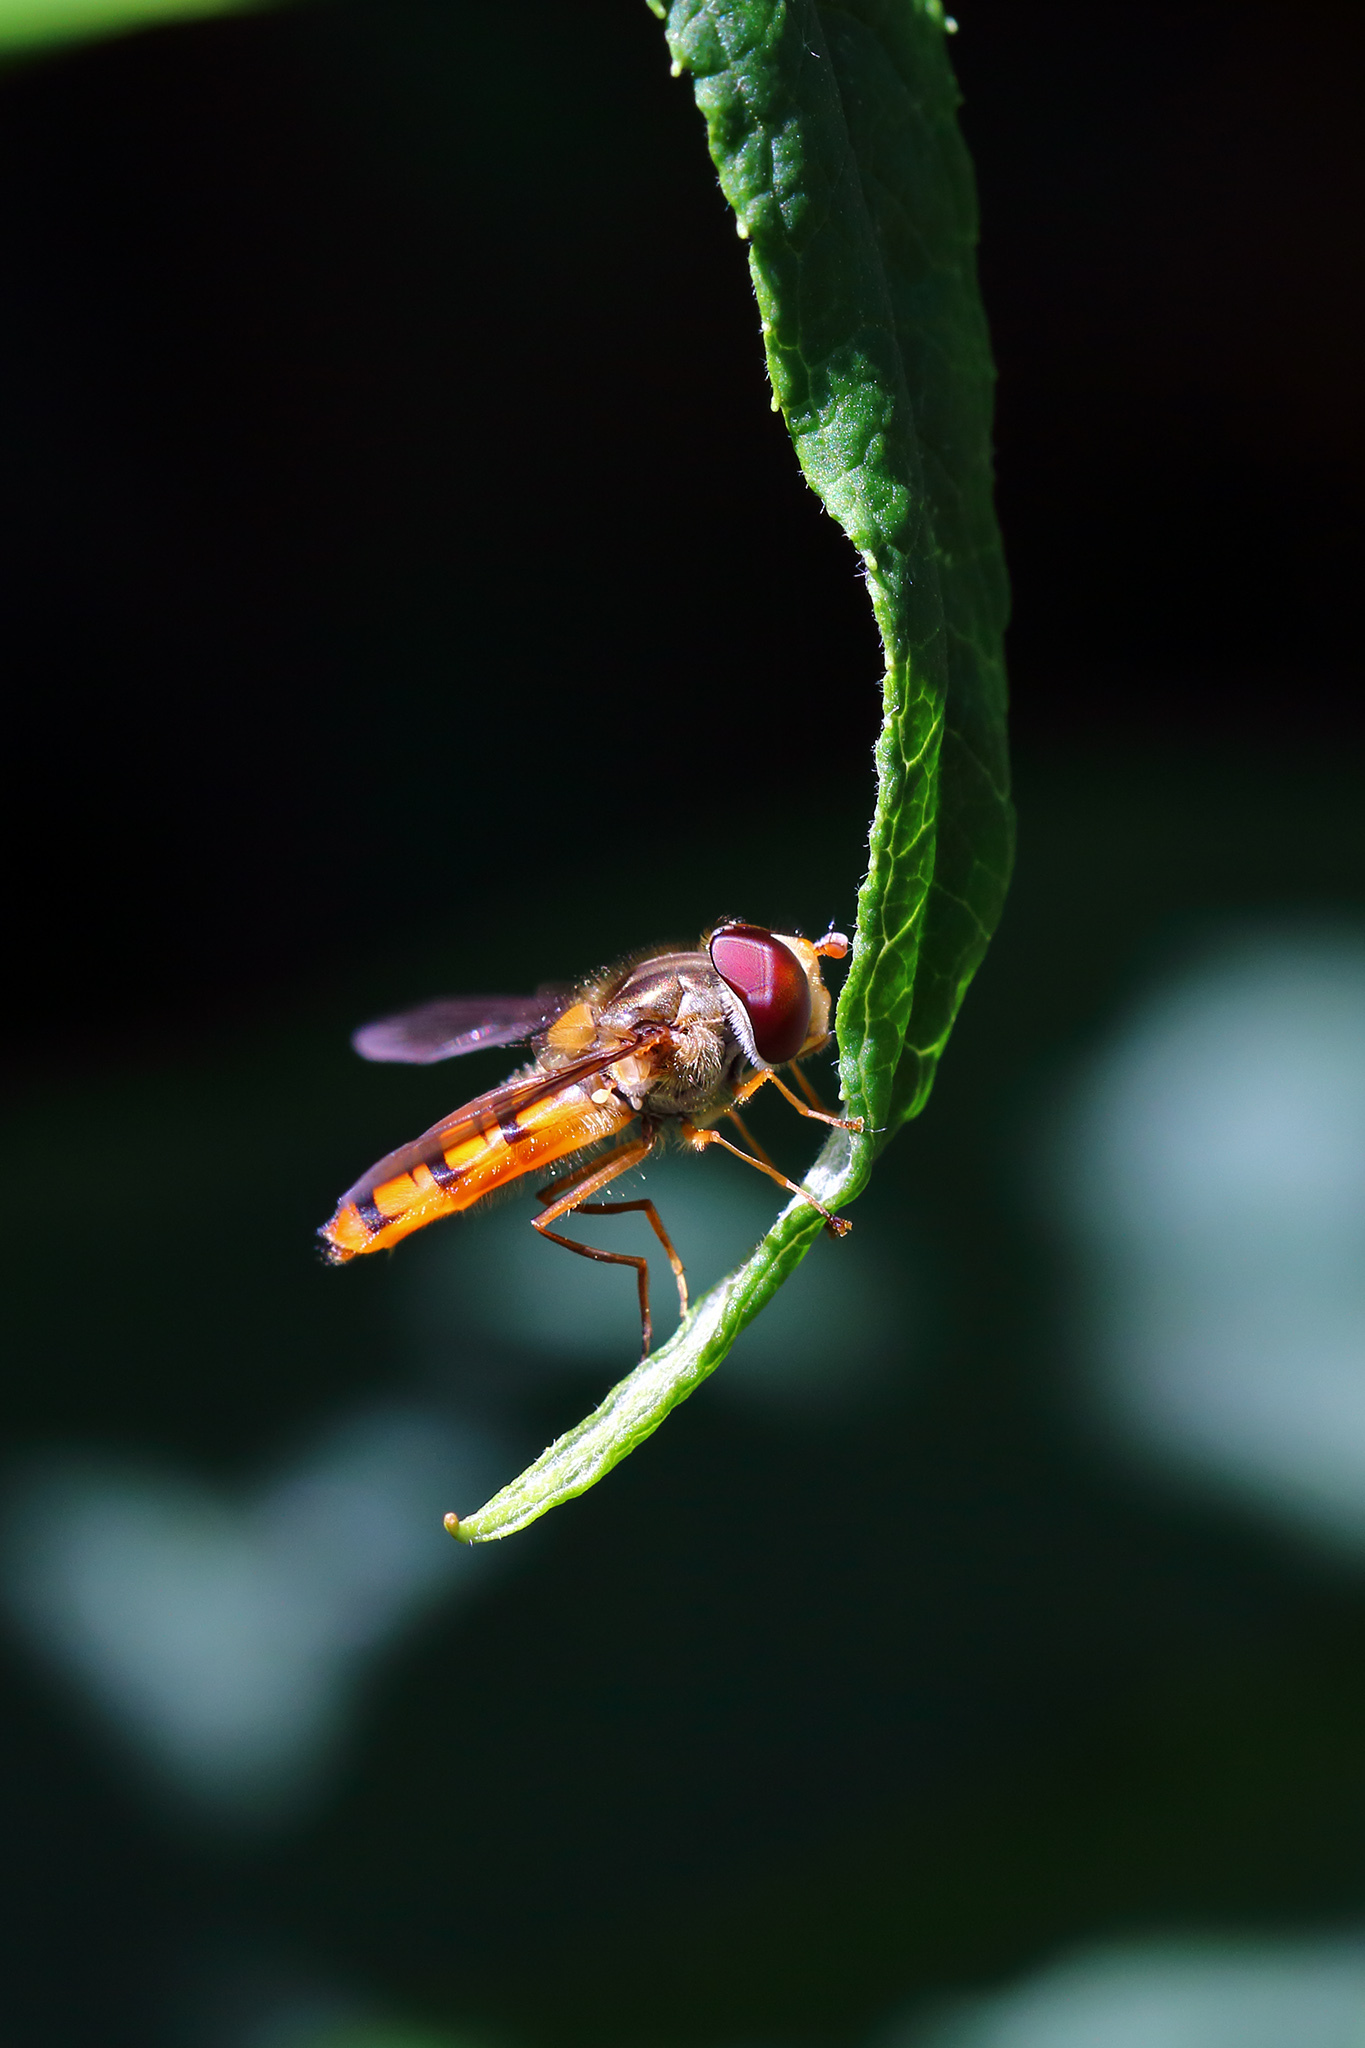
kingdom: Animalia
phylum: Arthropoda
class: Insecta
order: Diptera
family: Syrphidae
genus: Episyrphus
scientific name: Episyrphus balteatus
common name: Marmalade hoverfly
